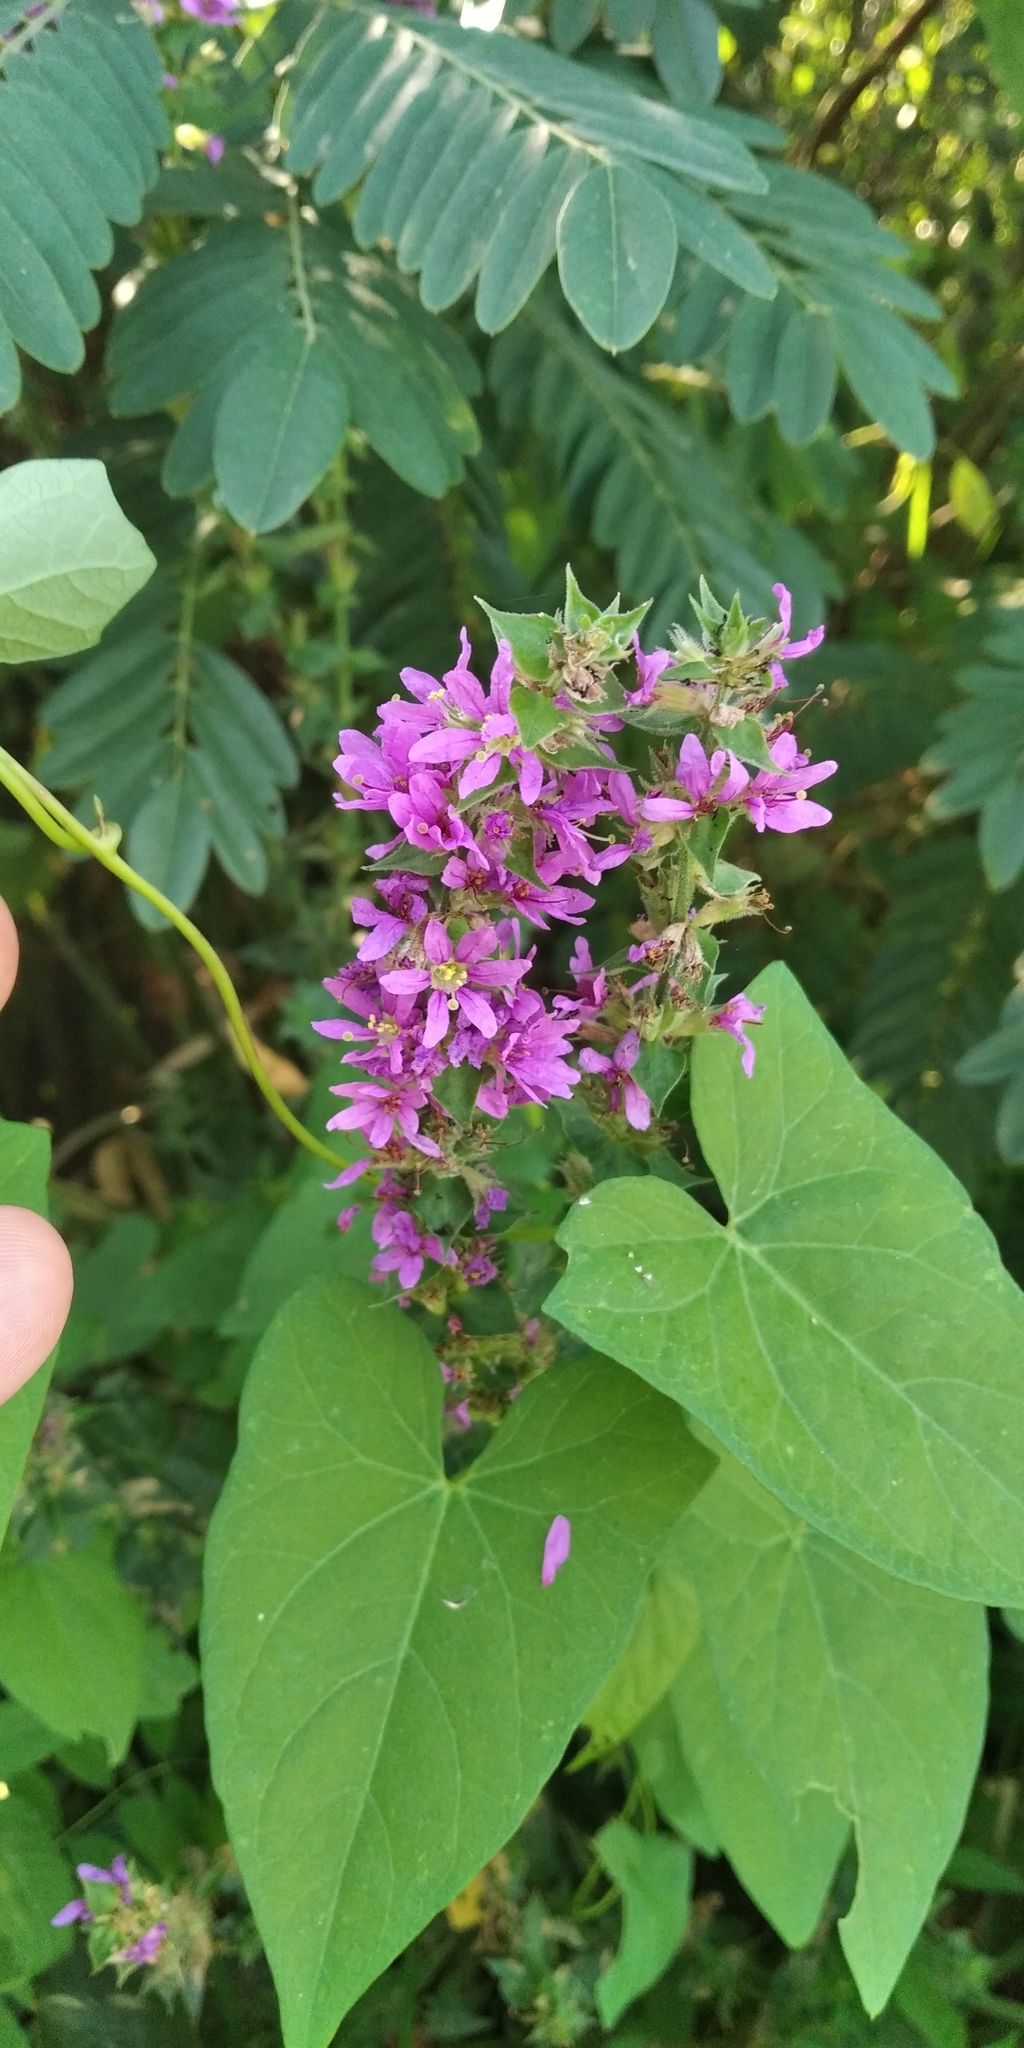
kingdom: Plantae
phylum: Tracheophyta
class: Magnoliopsida
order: Myrtales
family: Lythraceae
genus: Lythrum
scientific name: Lythrum salicaria
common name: Purple loosestrife
